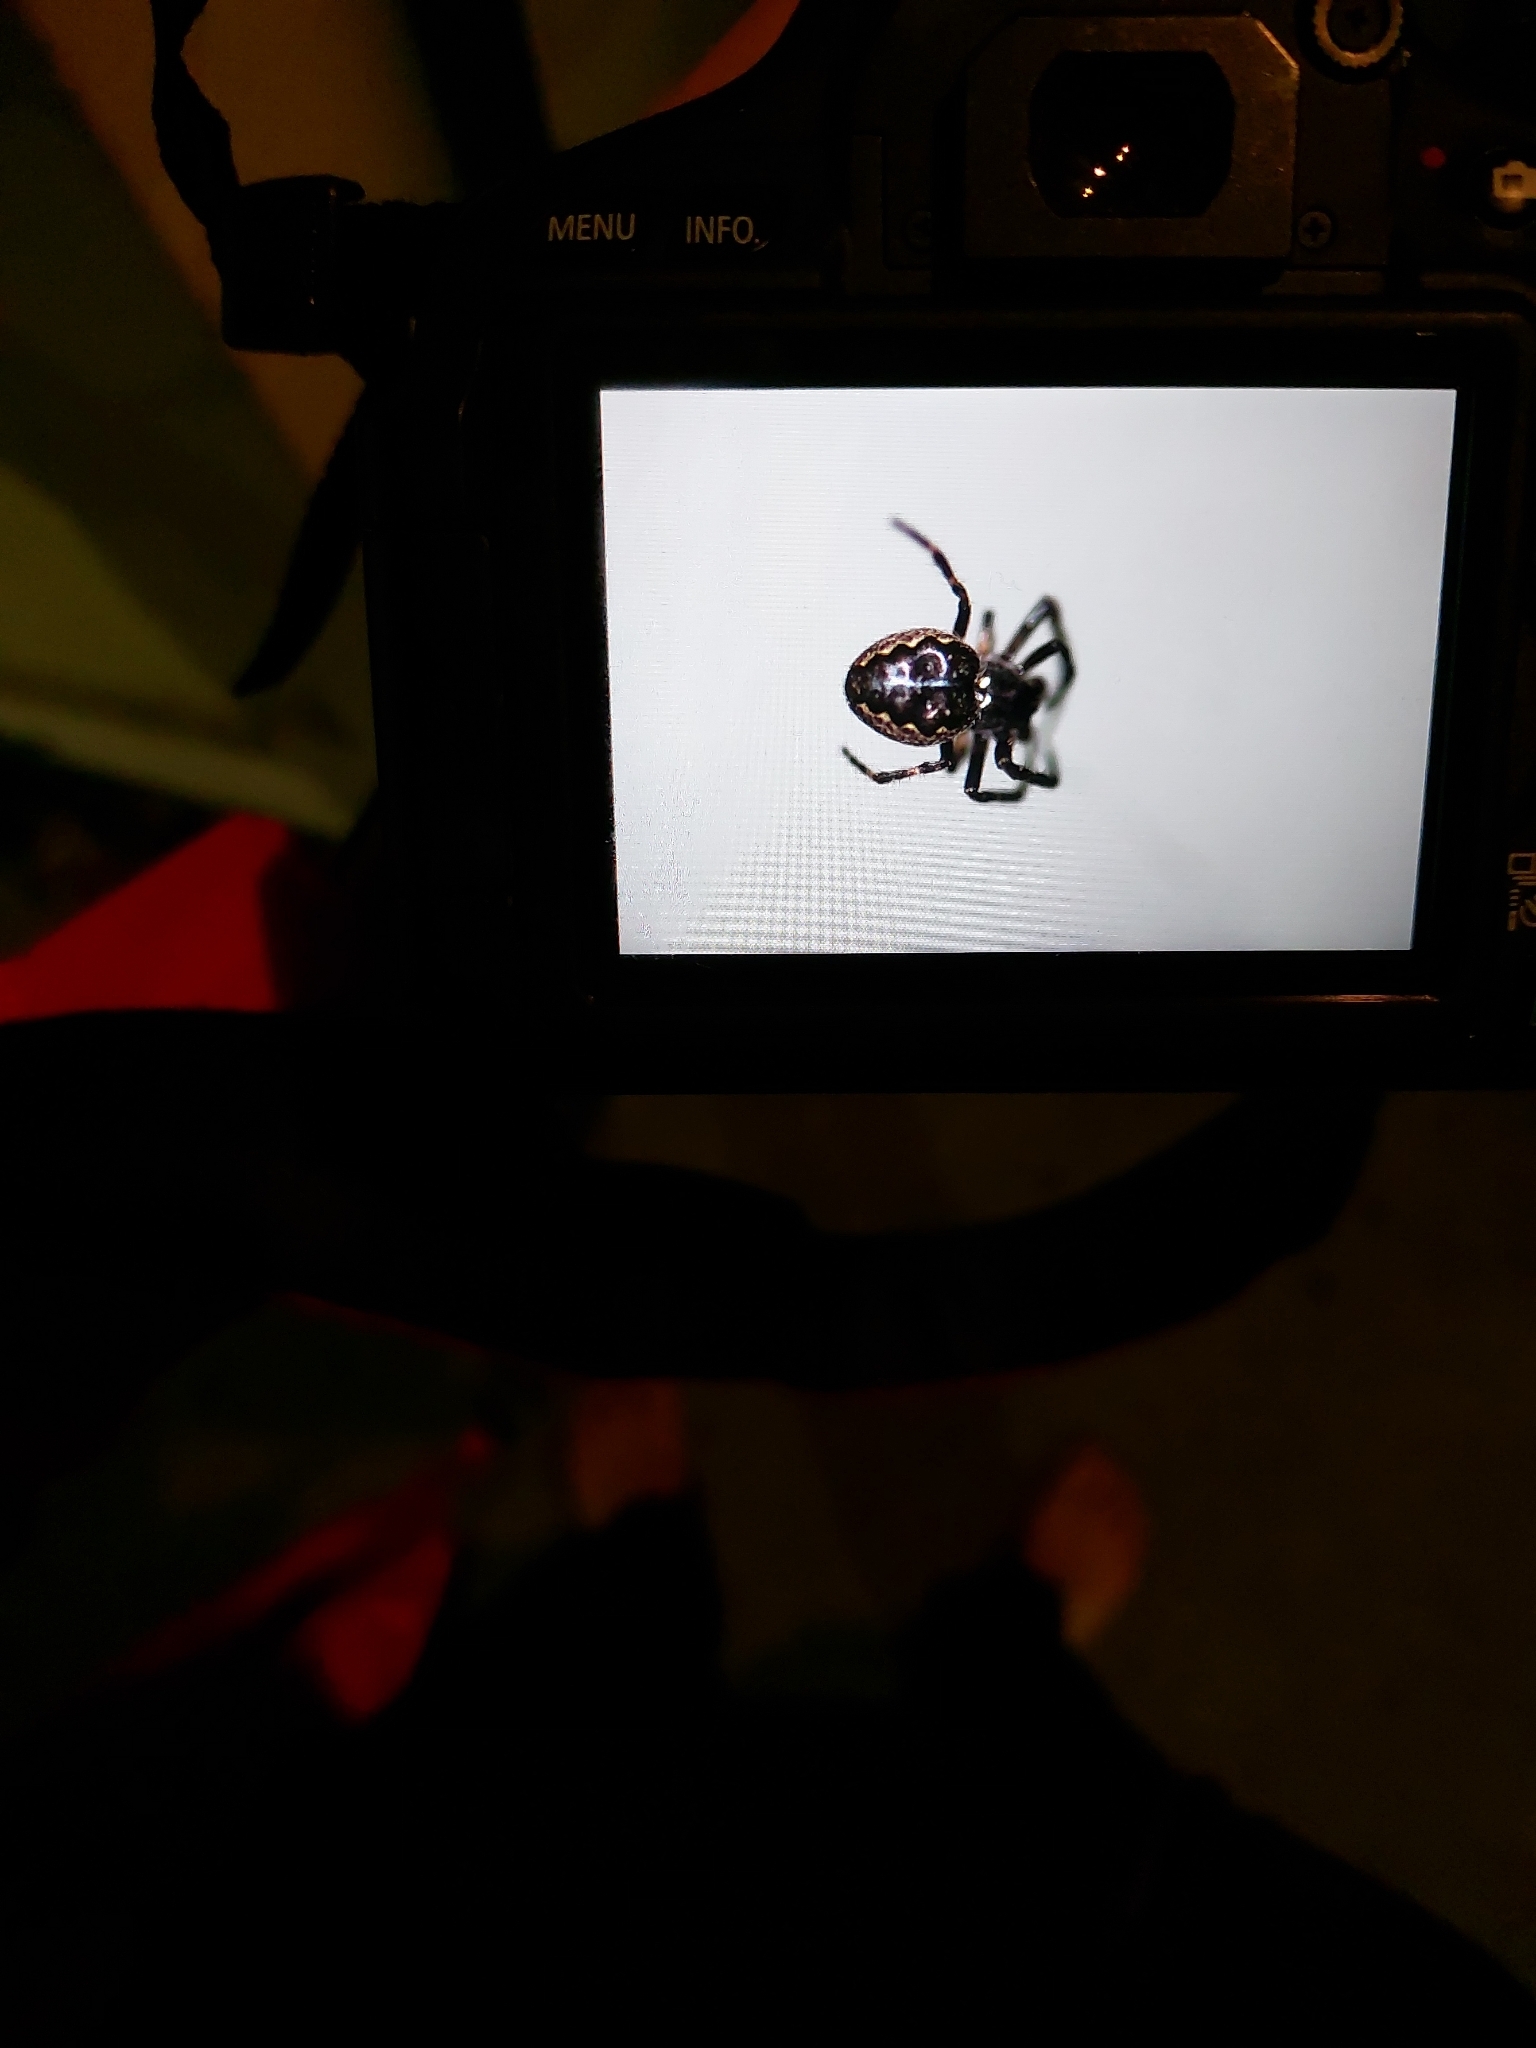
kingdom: Animalia
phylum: Arthropoda
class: Arachnida
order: Araneae
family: Araneidae
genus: Nuctenea
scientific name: Nuctenea umbratica
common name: Toad spider
